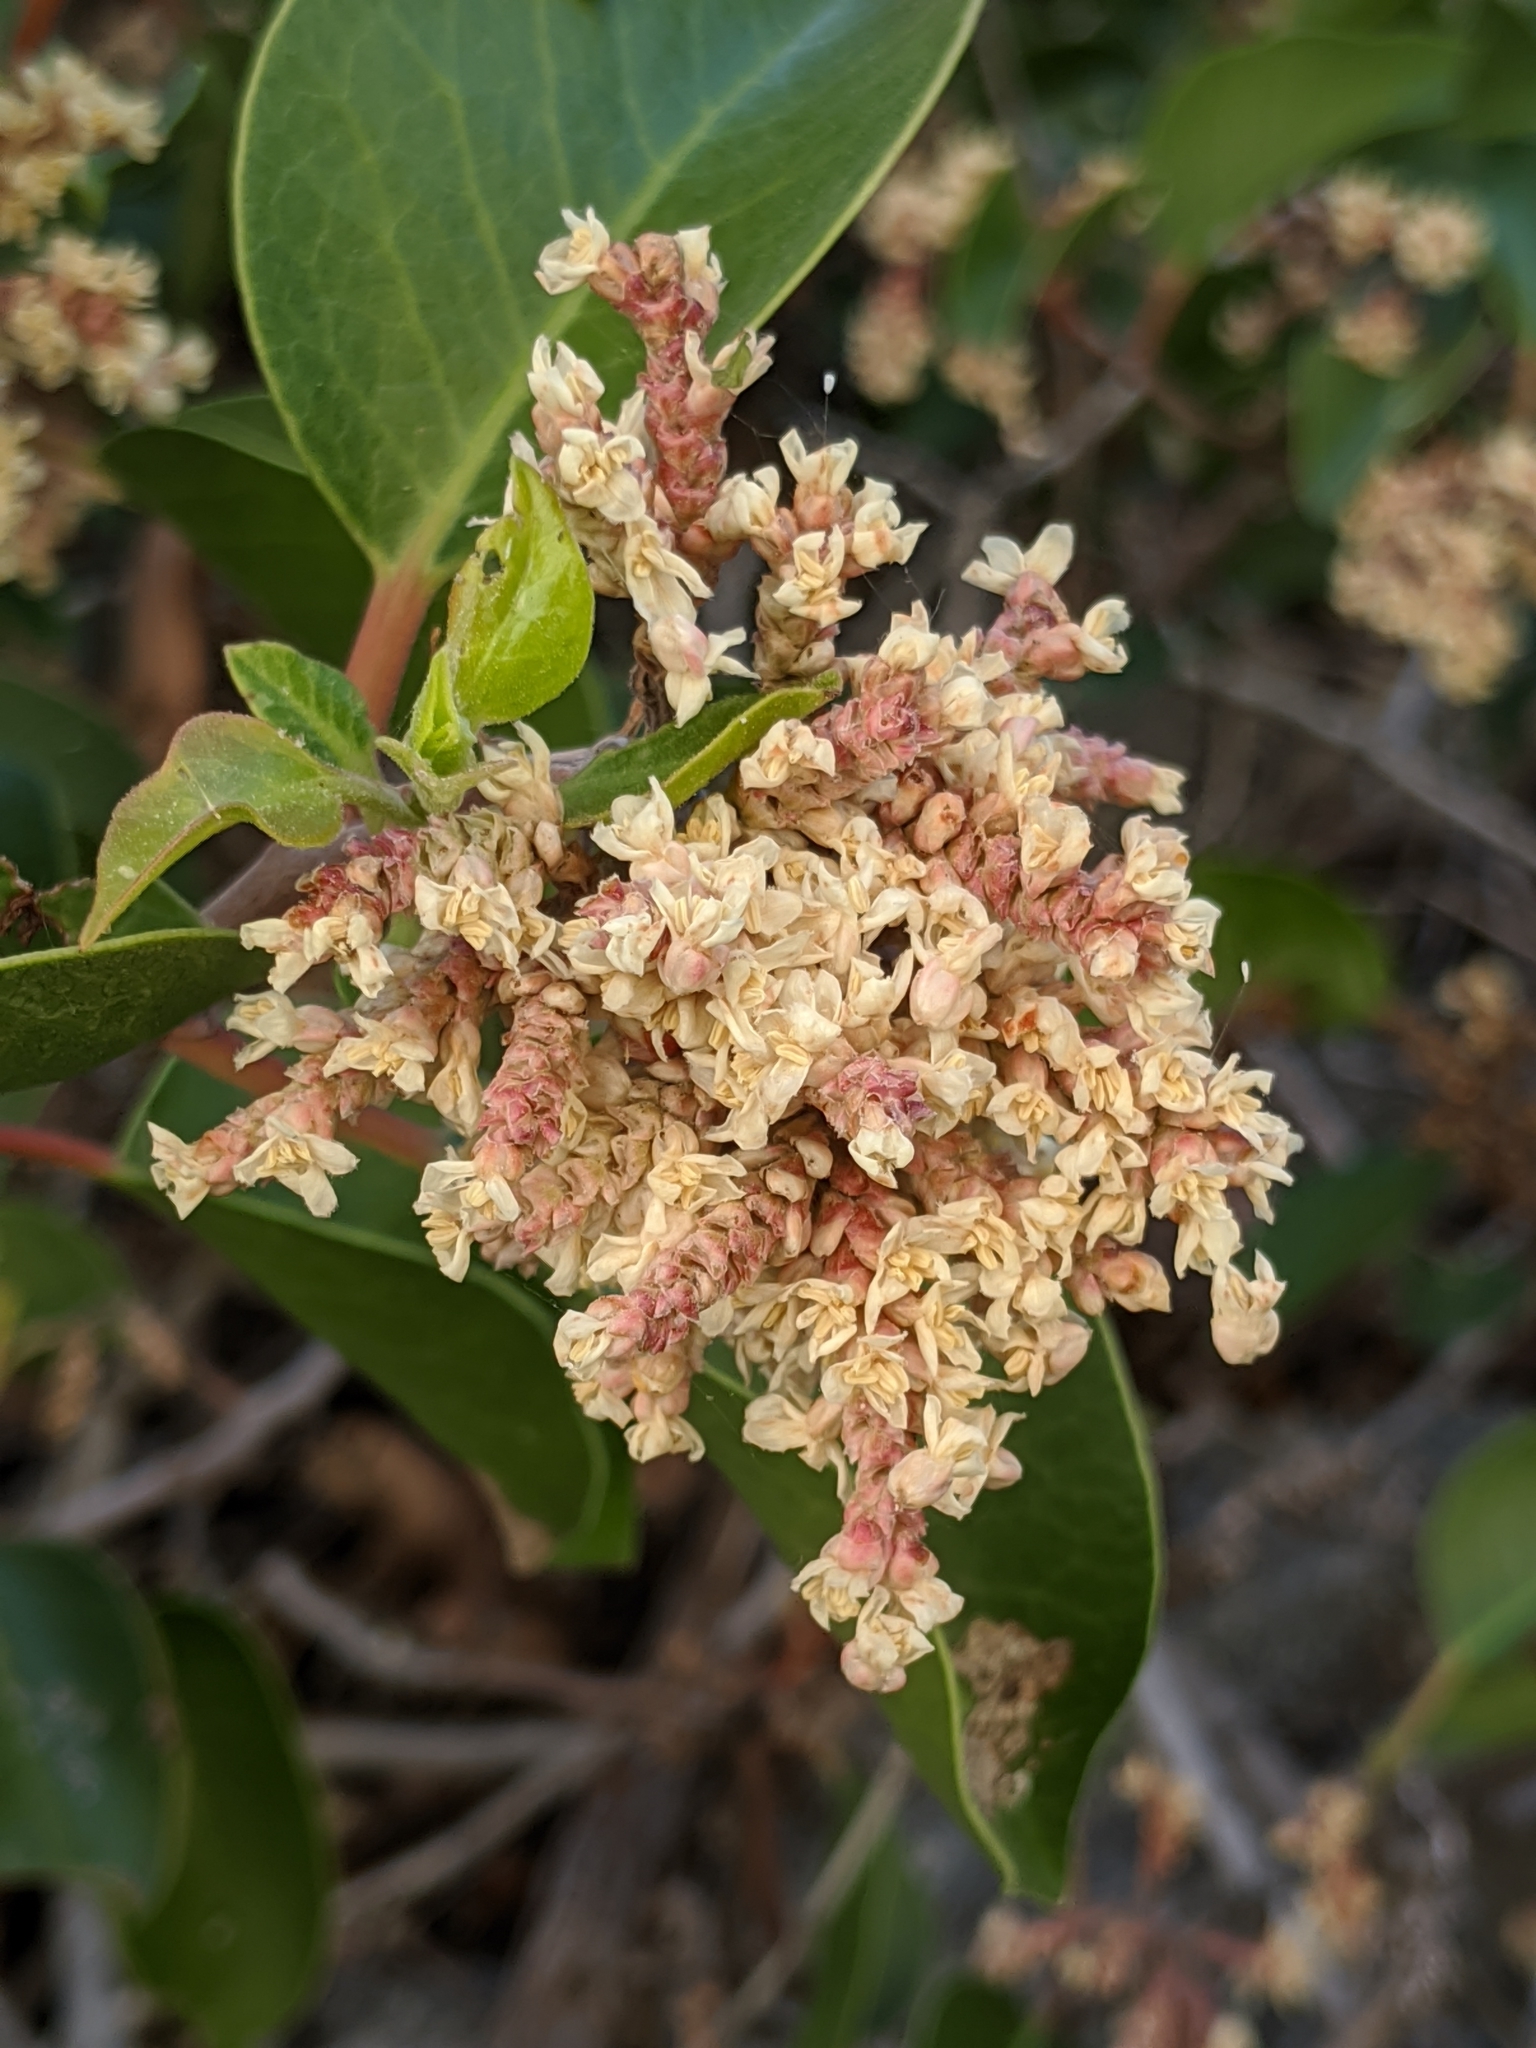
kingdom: Plantae
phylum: Tracheophyta
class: Magnoliopsida
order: Sapindales
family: Anacardiaceae
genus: Rhus
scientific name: Rhus ovata
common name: Sugar sumac
